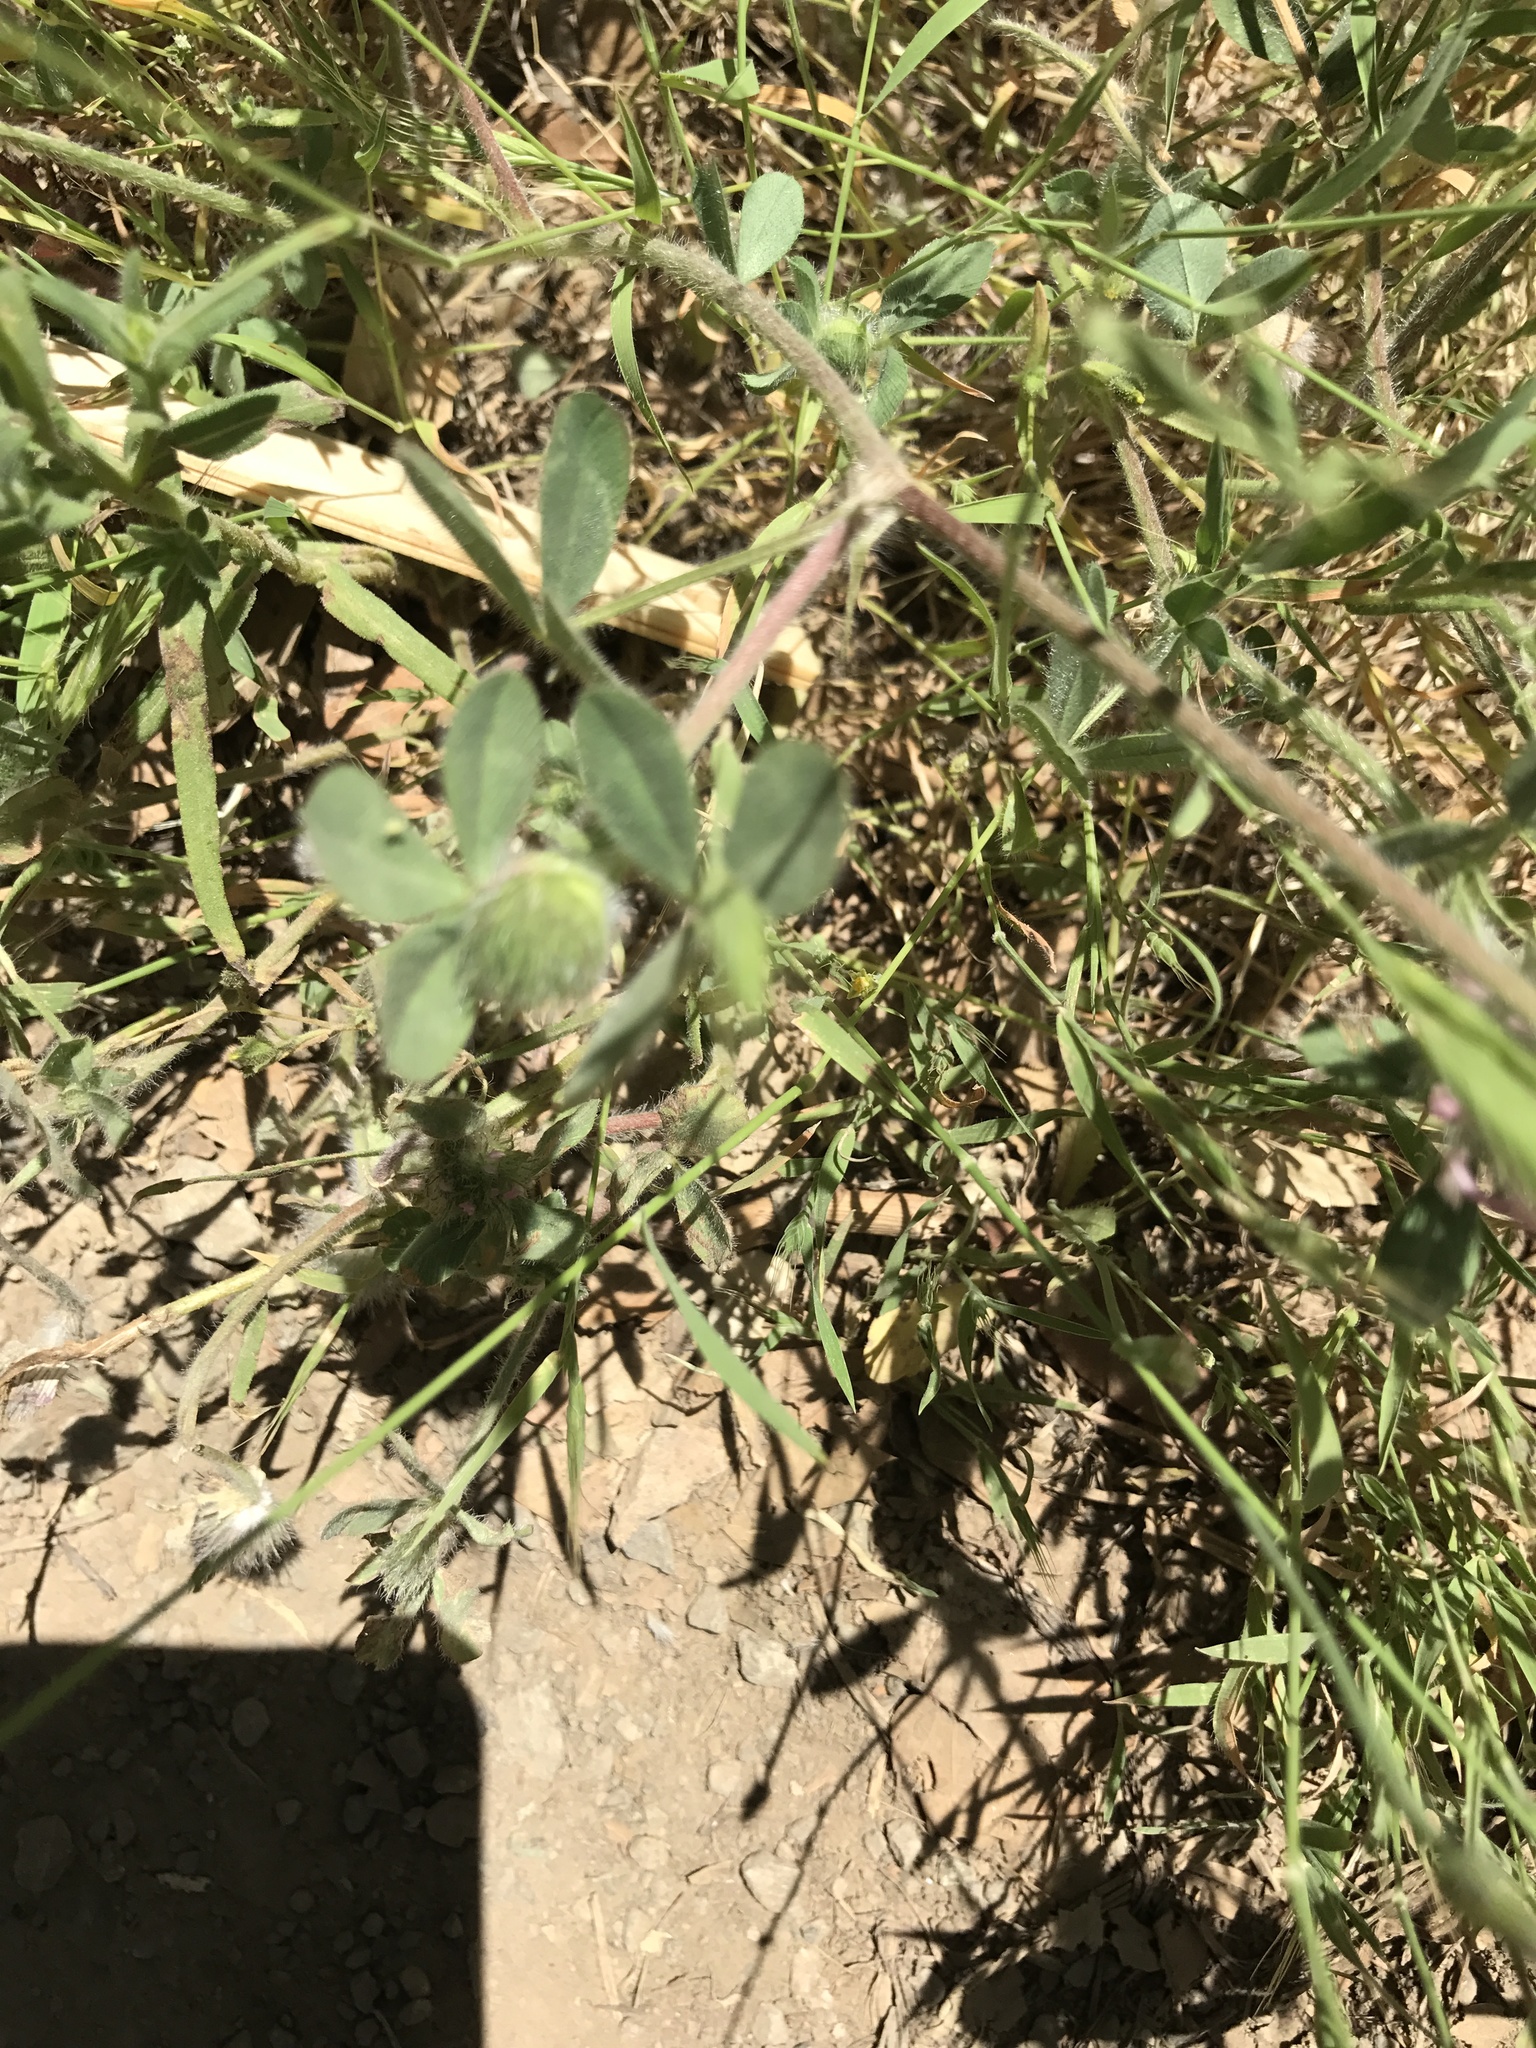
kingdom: Plantae
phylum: Tracheophyta
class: Magnoliopsida
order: Fabales
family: Fabaceae
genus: Trifolium
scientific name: Trifolium hirtum
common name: Rose clover
